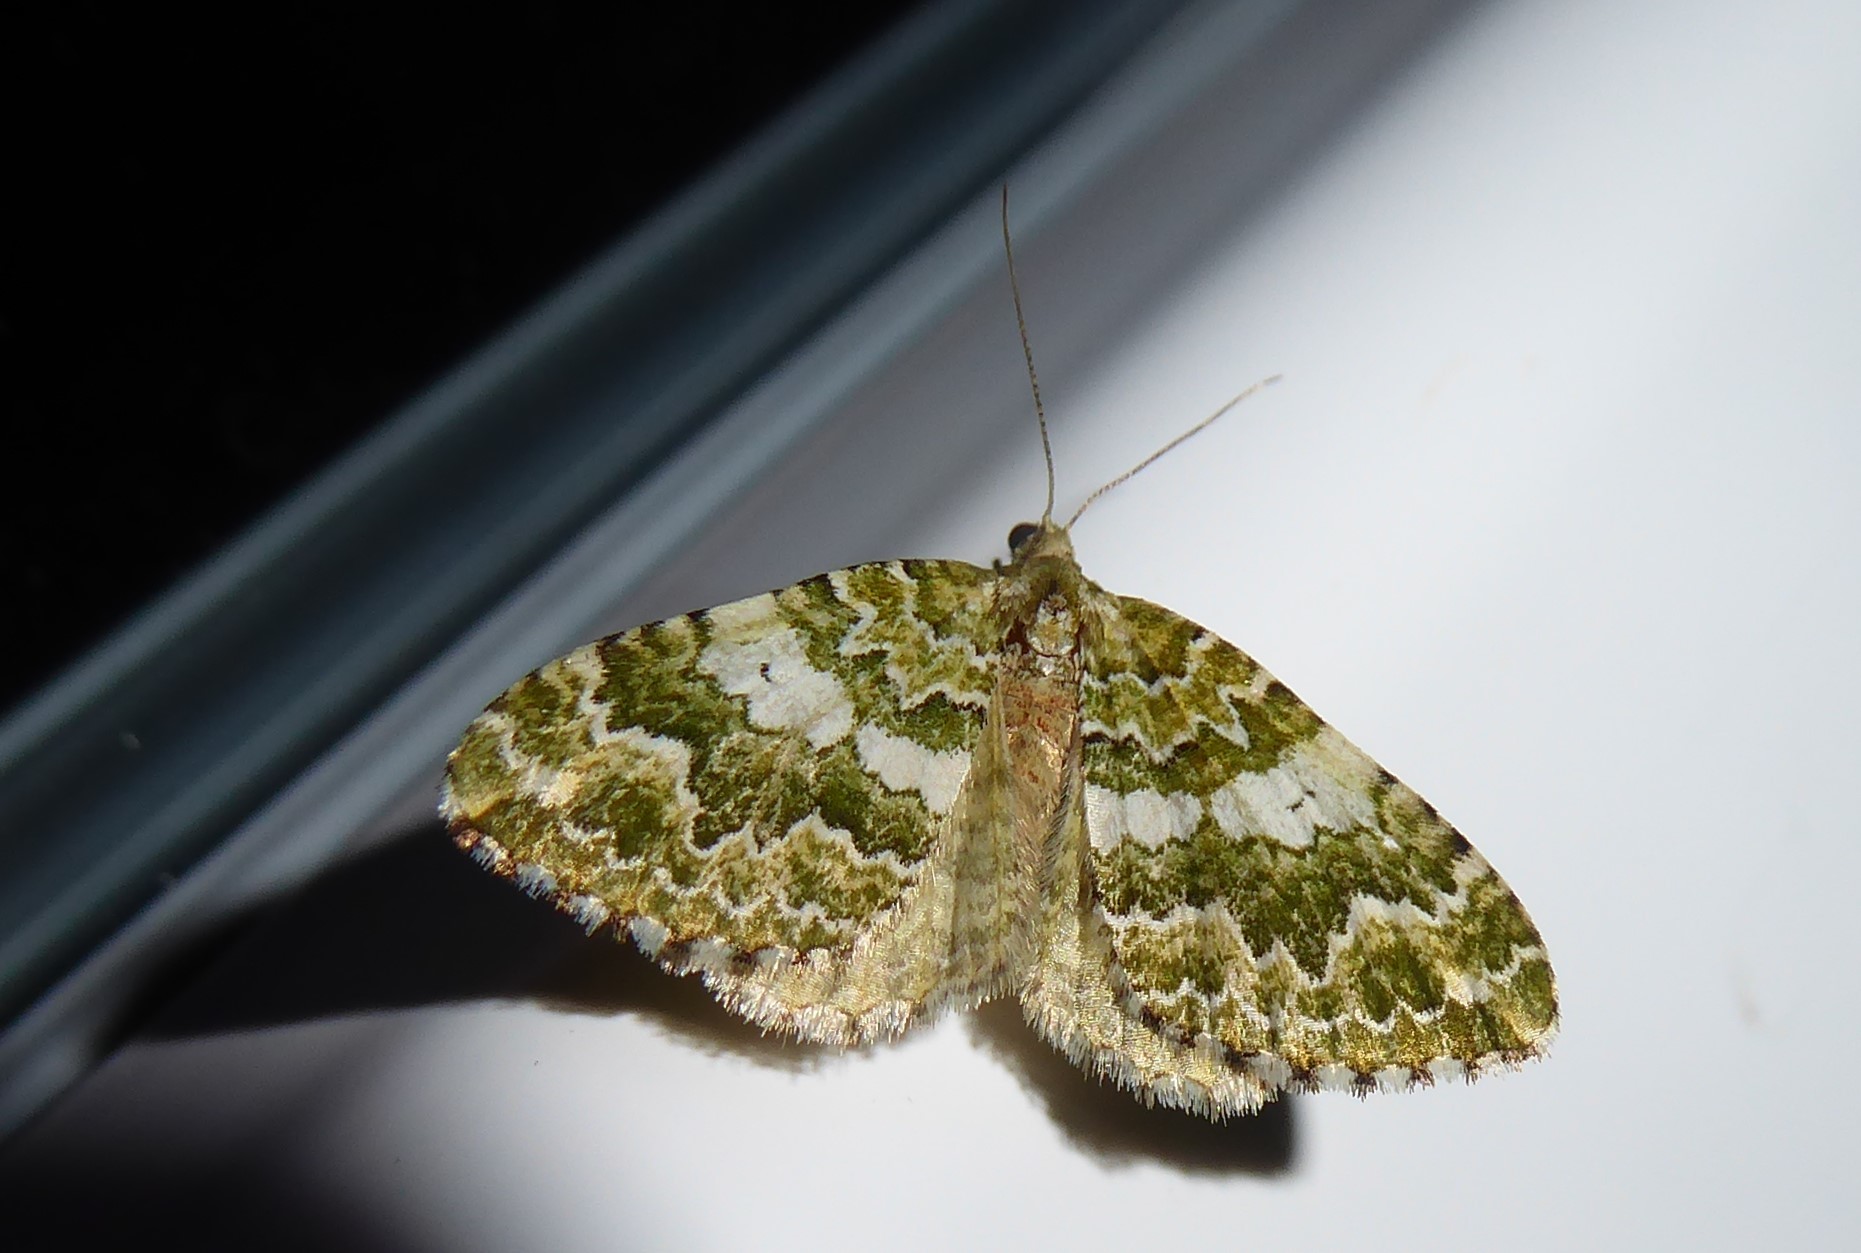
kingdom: Animalia
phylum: Arthropoda
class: Insecta
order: Lepidoptera
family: Geometridae
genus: Asaphodes
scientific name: Asaphodes beata
